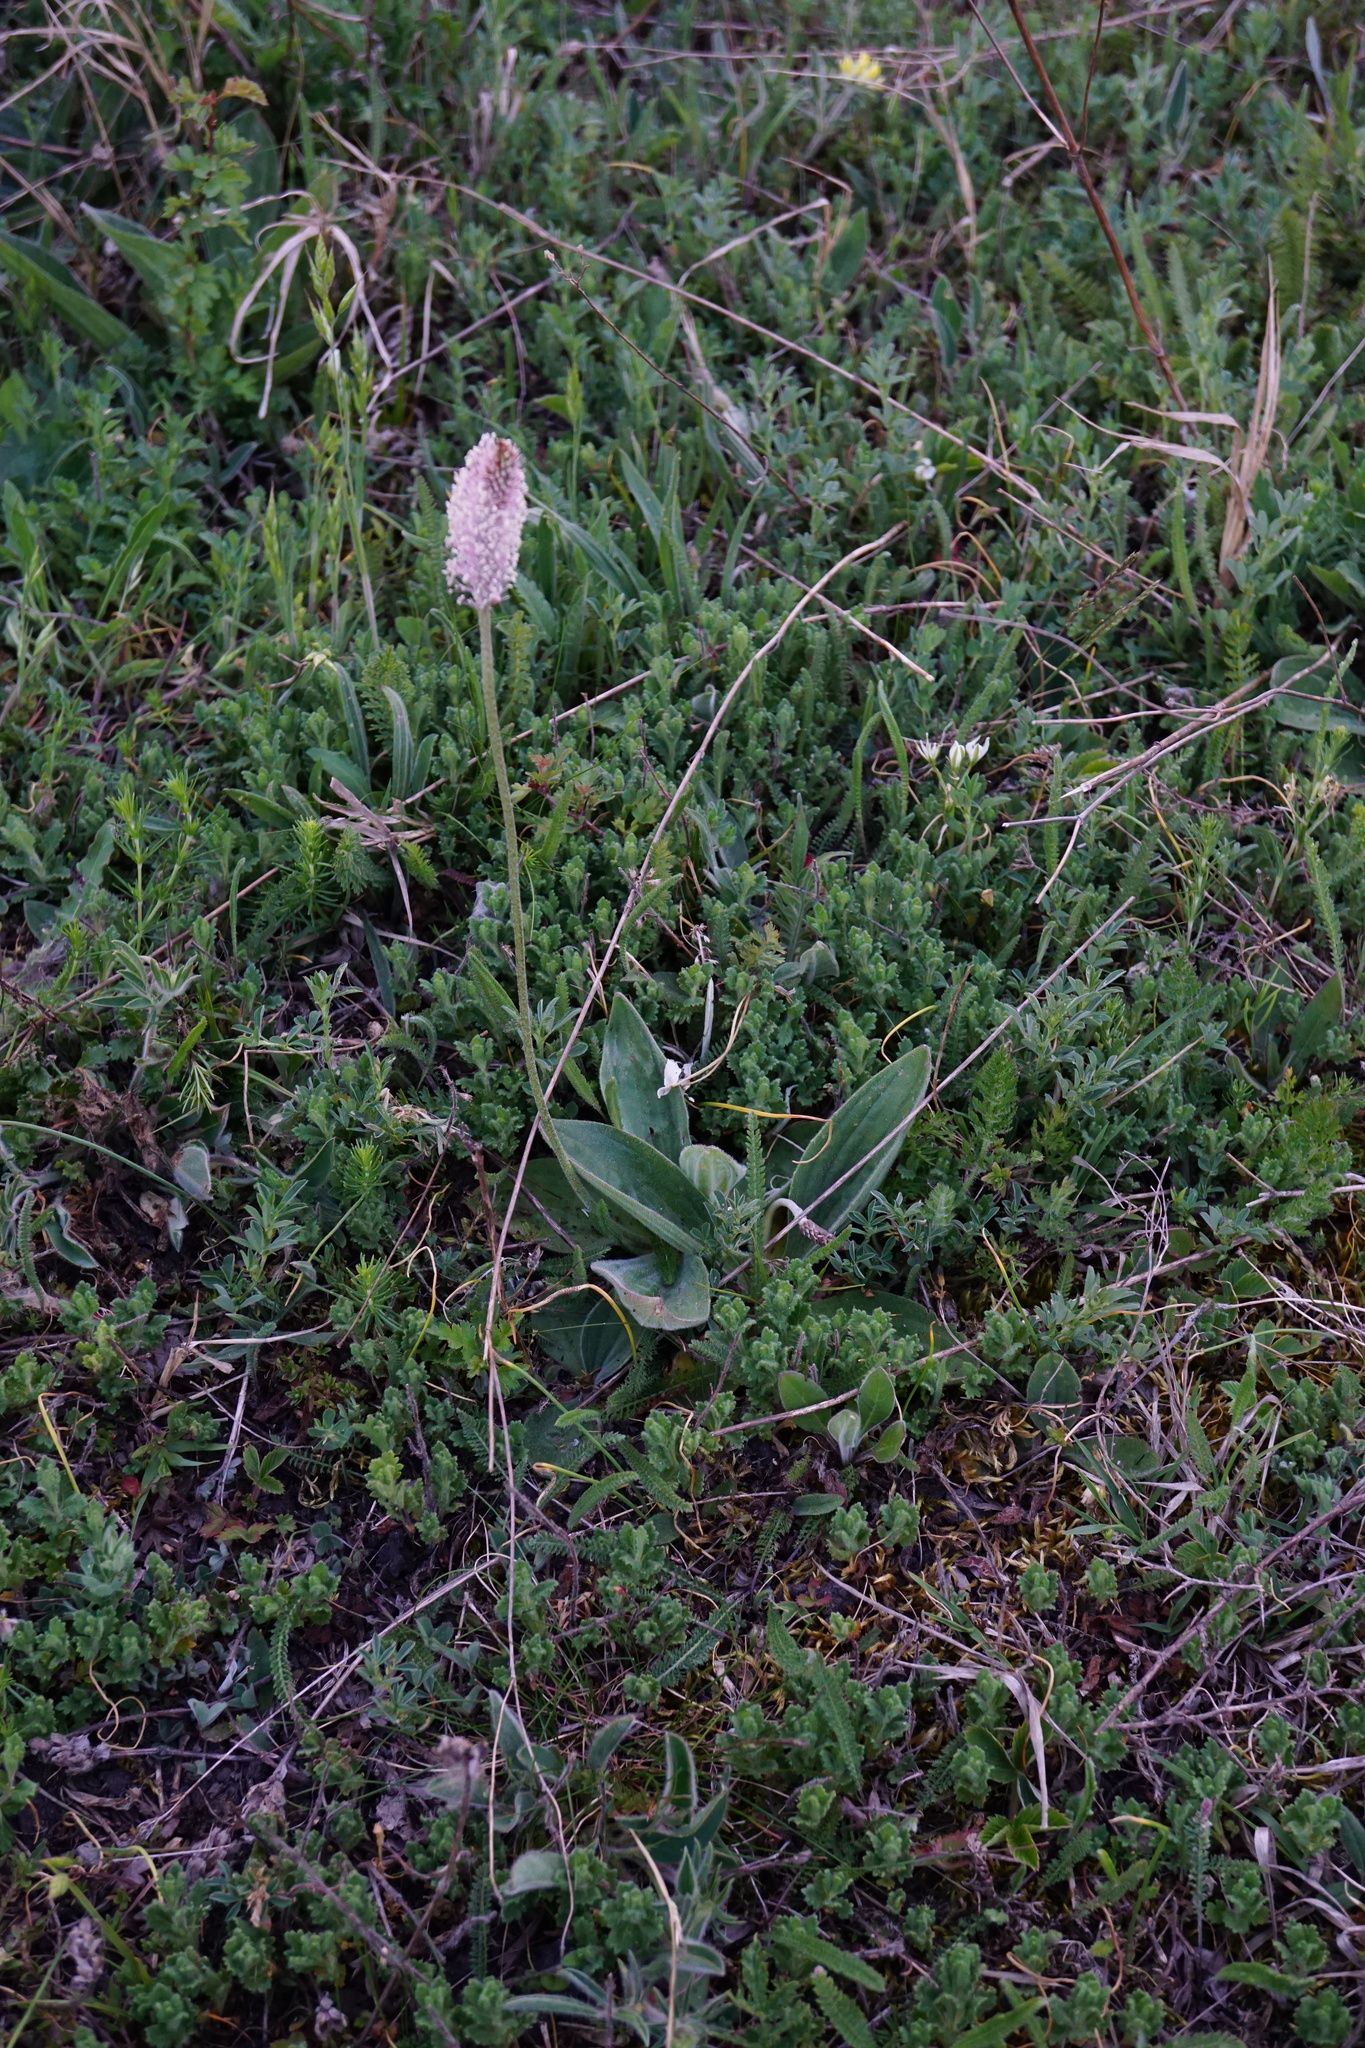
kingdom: Plantae
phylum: Tracheophyta
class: Magnoliopsida
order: Lamiales
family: Plantaginaceae
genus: Plantago
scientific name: Plantago media
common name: Hoary plantain
